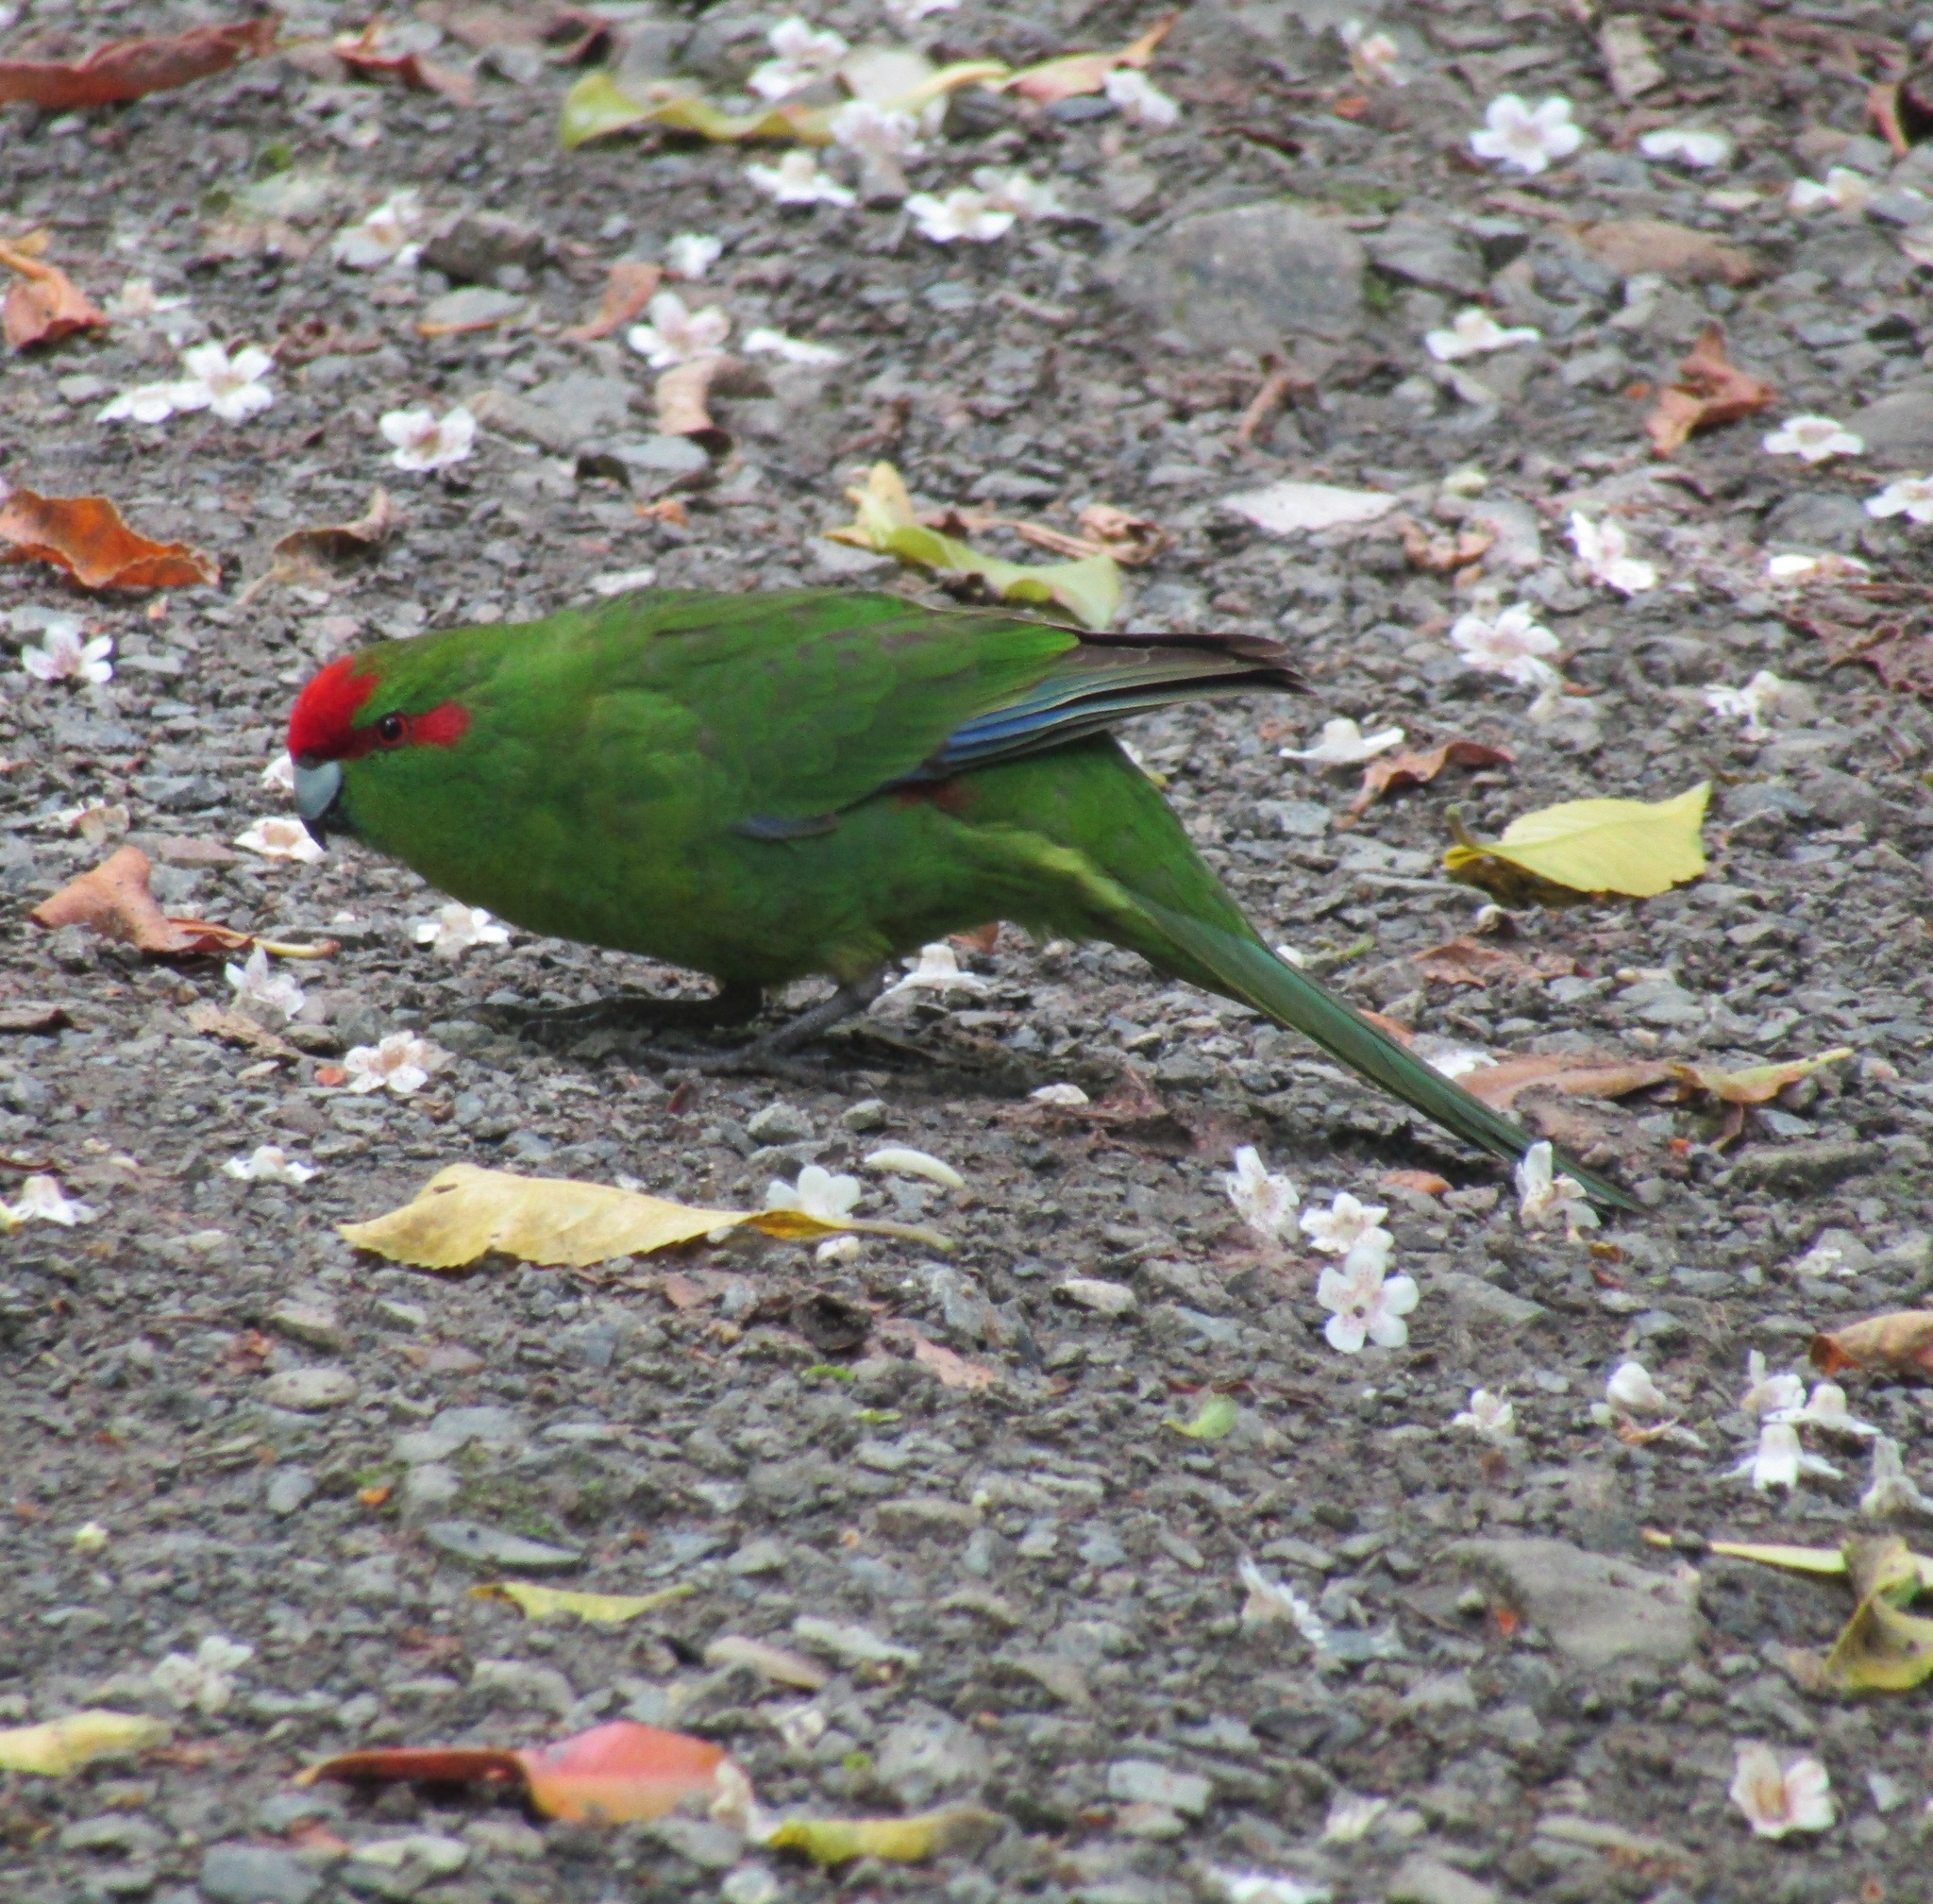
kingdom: Animalia
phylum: Chordata
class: Aves
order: Psittaciformes
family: Psittacidae
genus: Cyanoramphus
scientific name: Cyanoramphus novaezelandiae
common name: Red-fronted parakeet
